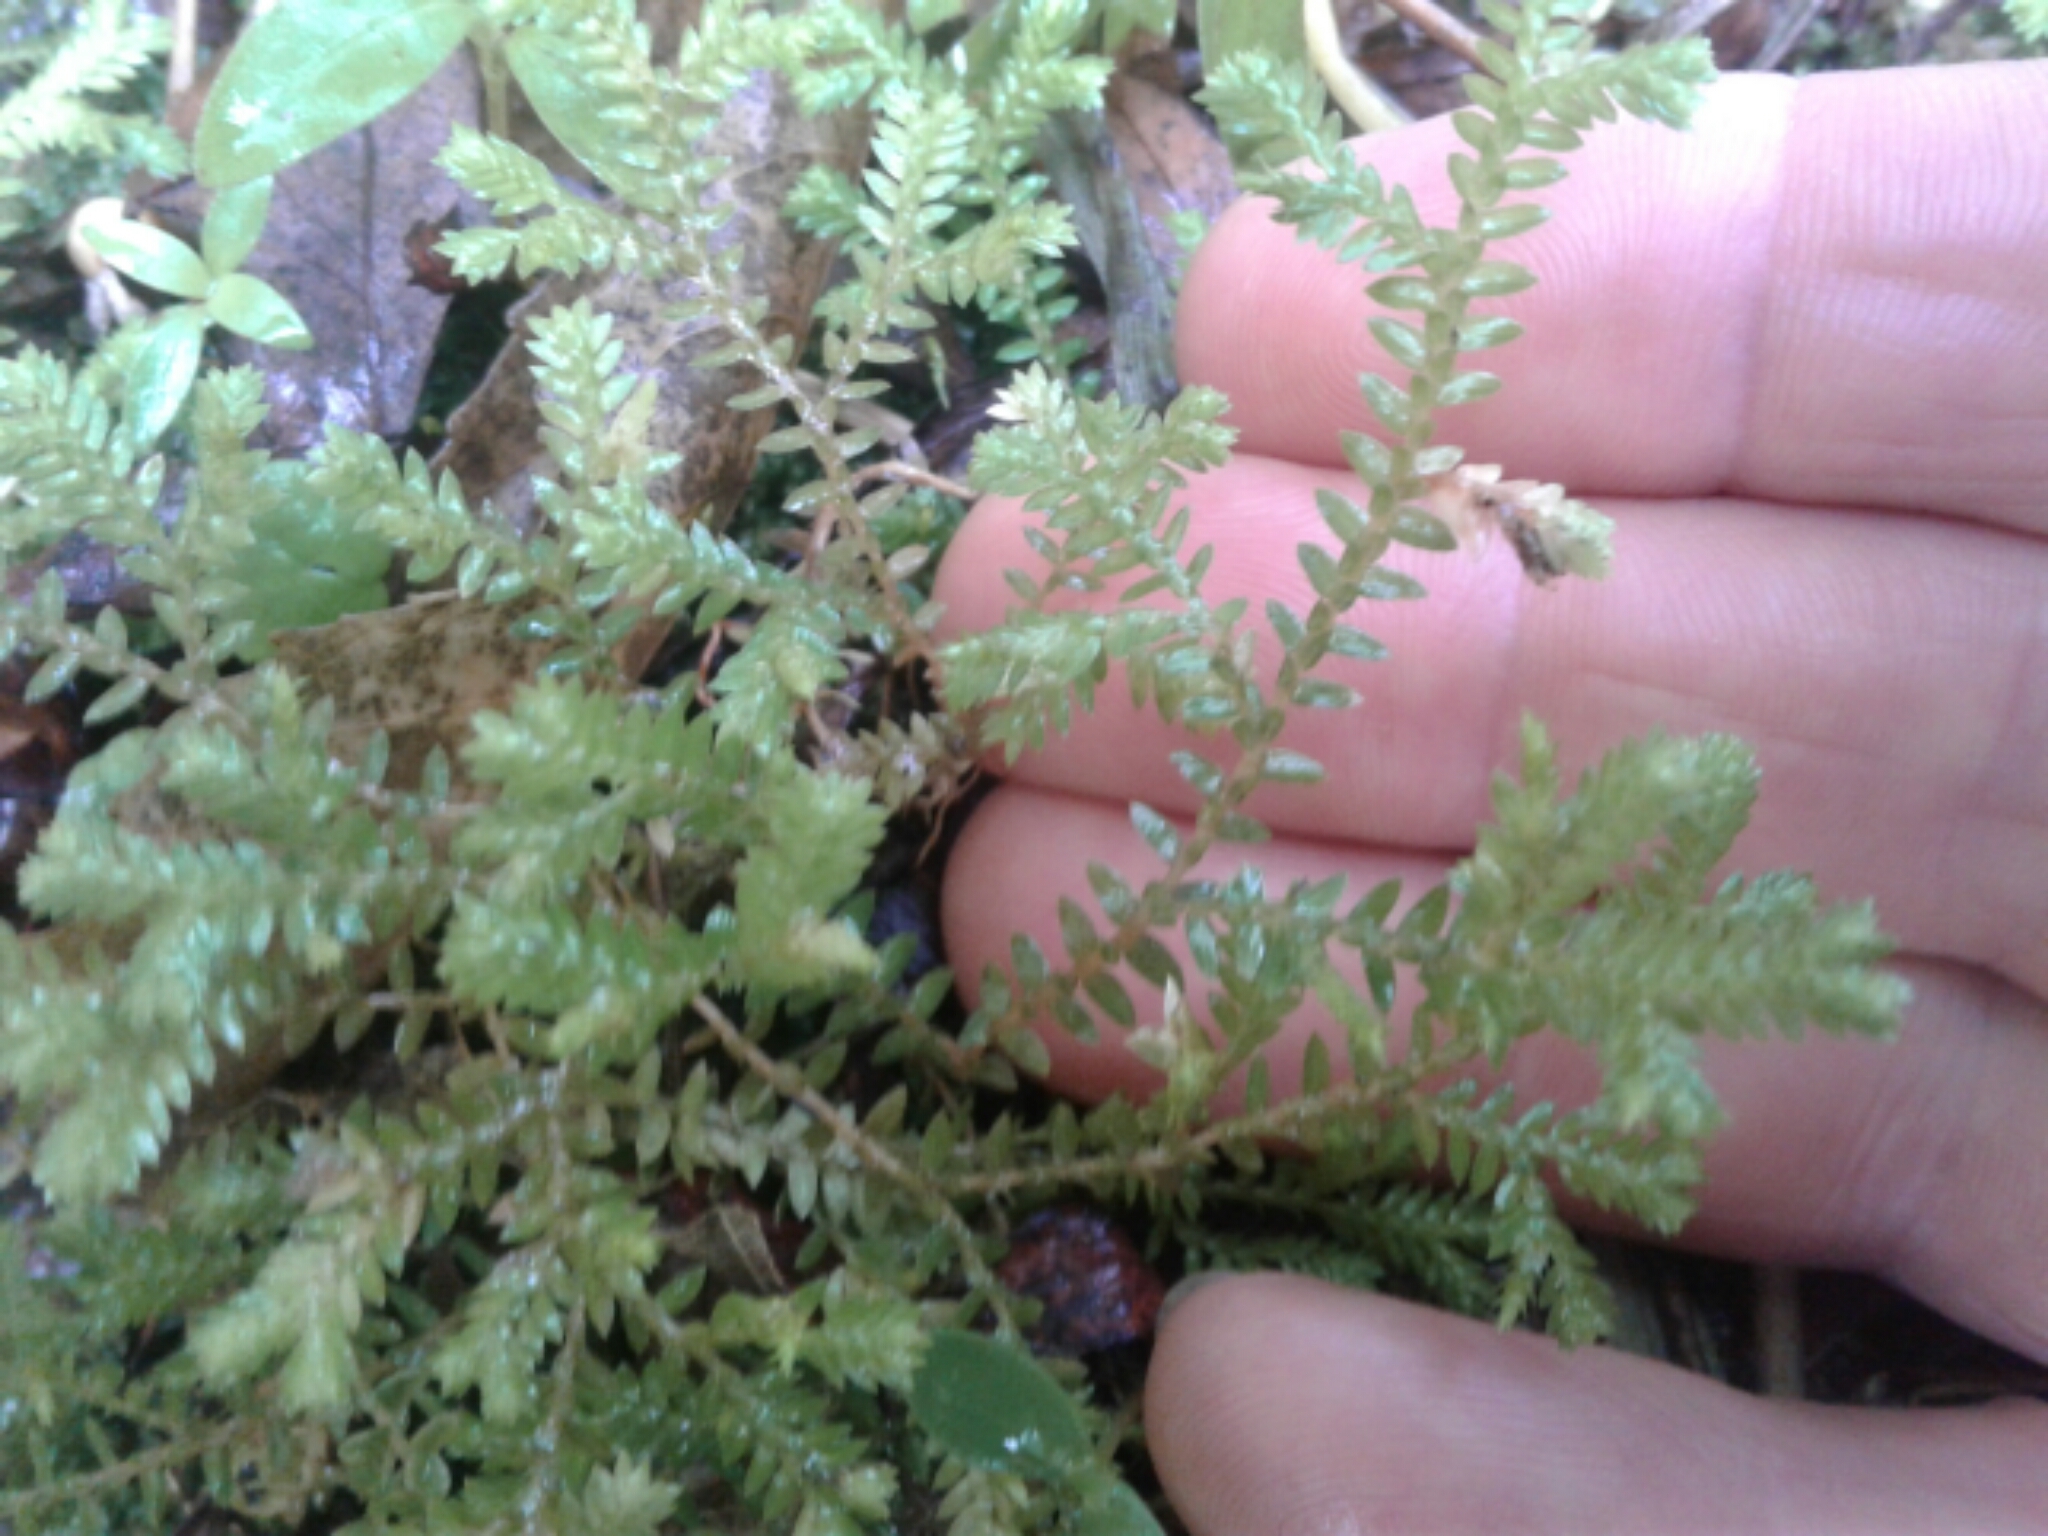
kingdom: Plantae
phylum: Tracheophyta
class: Lycopodiopsida
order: Selaginellales
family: Selaginellaceae
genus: Selaginella
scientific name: Selaginella kraussiana
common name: Krauss' spikemoss
